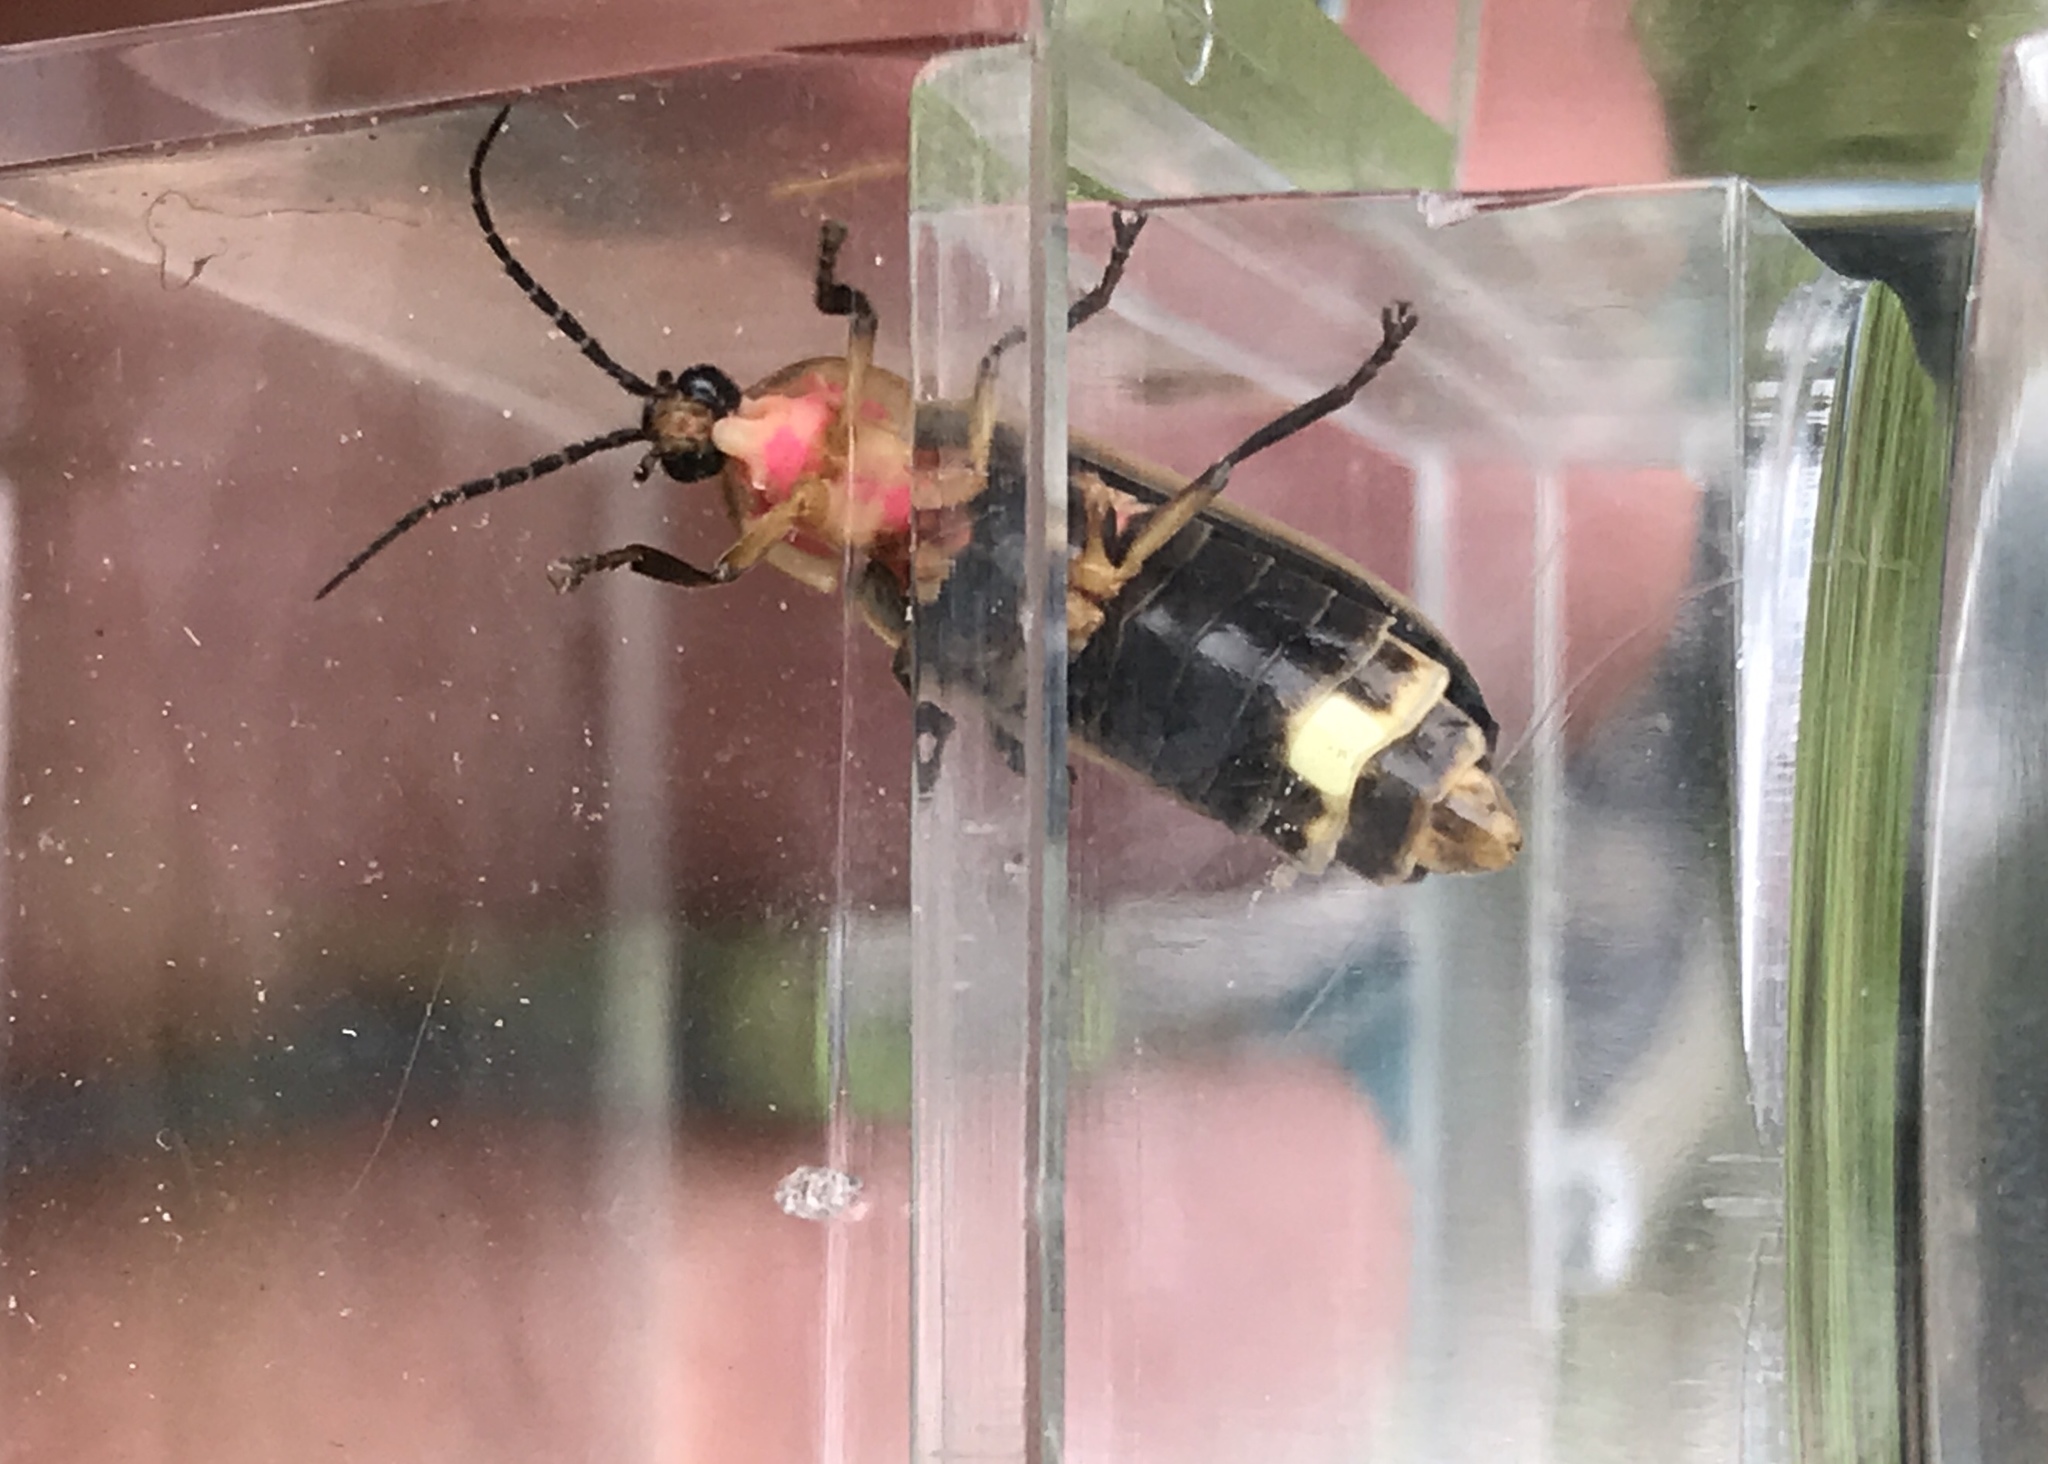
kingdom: Animalia
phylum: Arthropoda
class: Insecta
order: Coleoptera
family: Lampyridae
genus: Photinus
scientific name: Photinus pyralis
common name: Big dipper firefly
